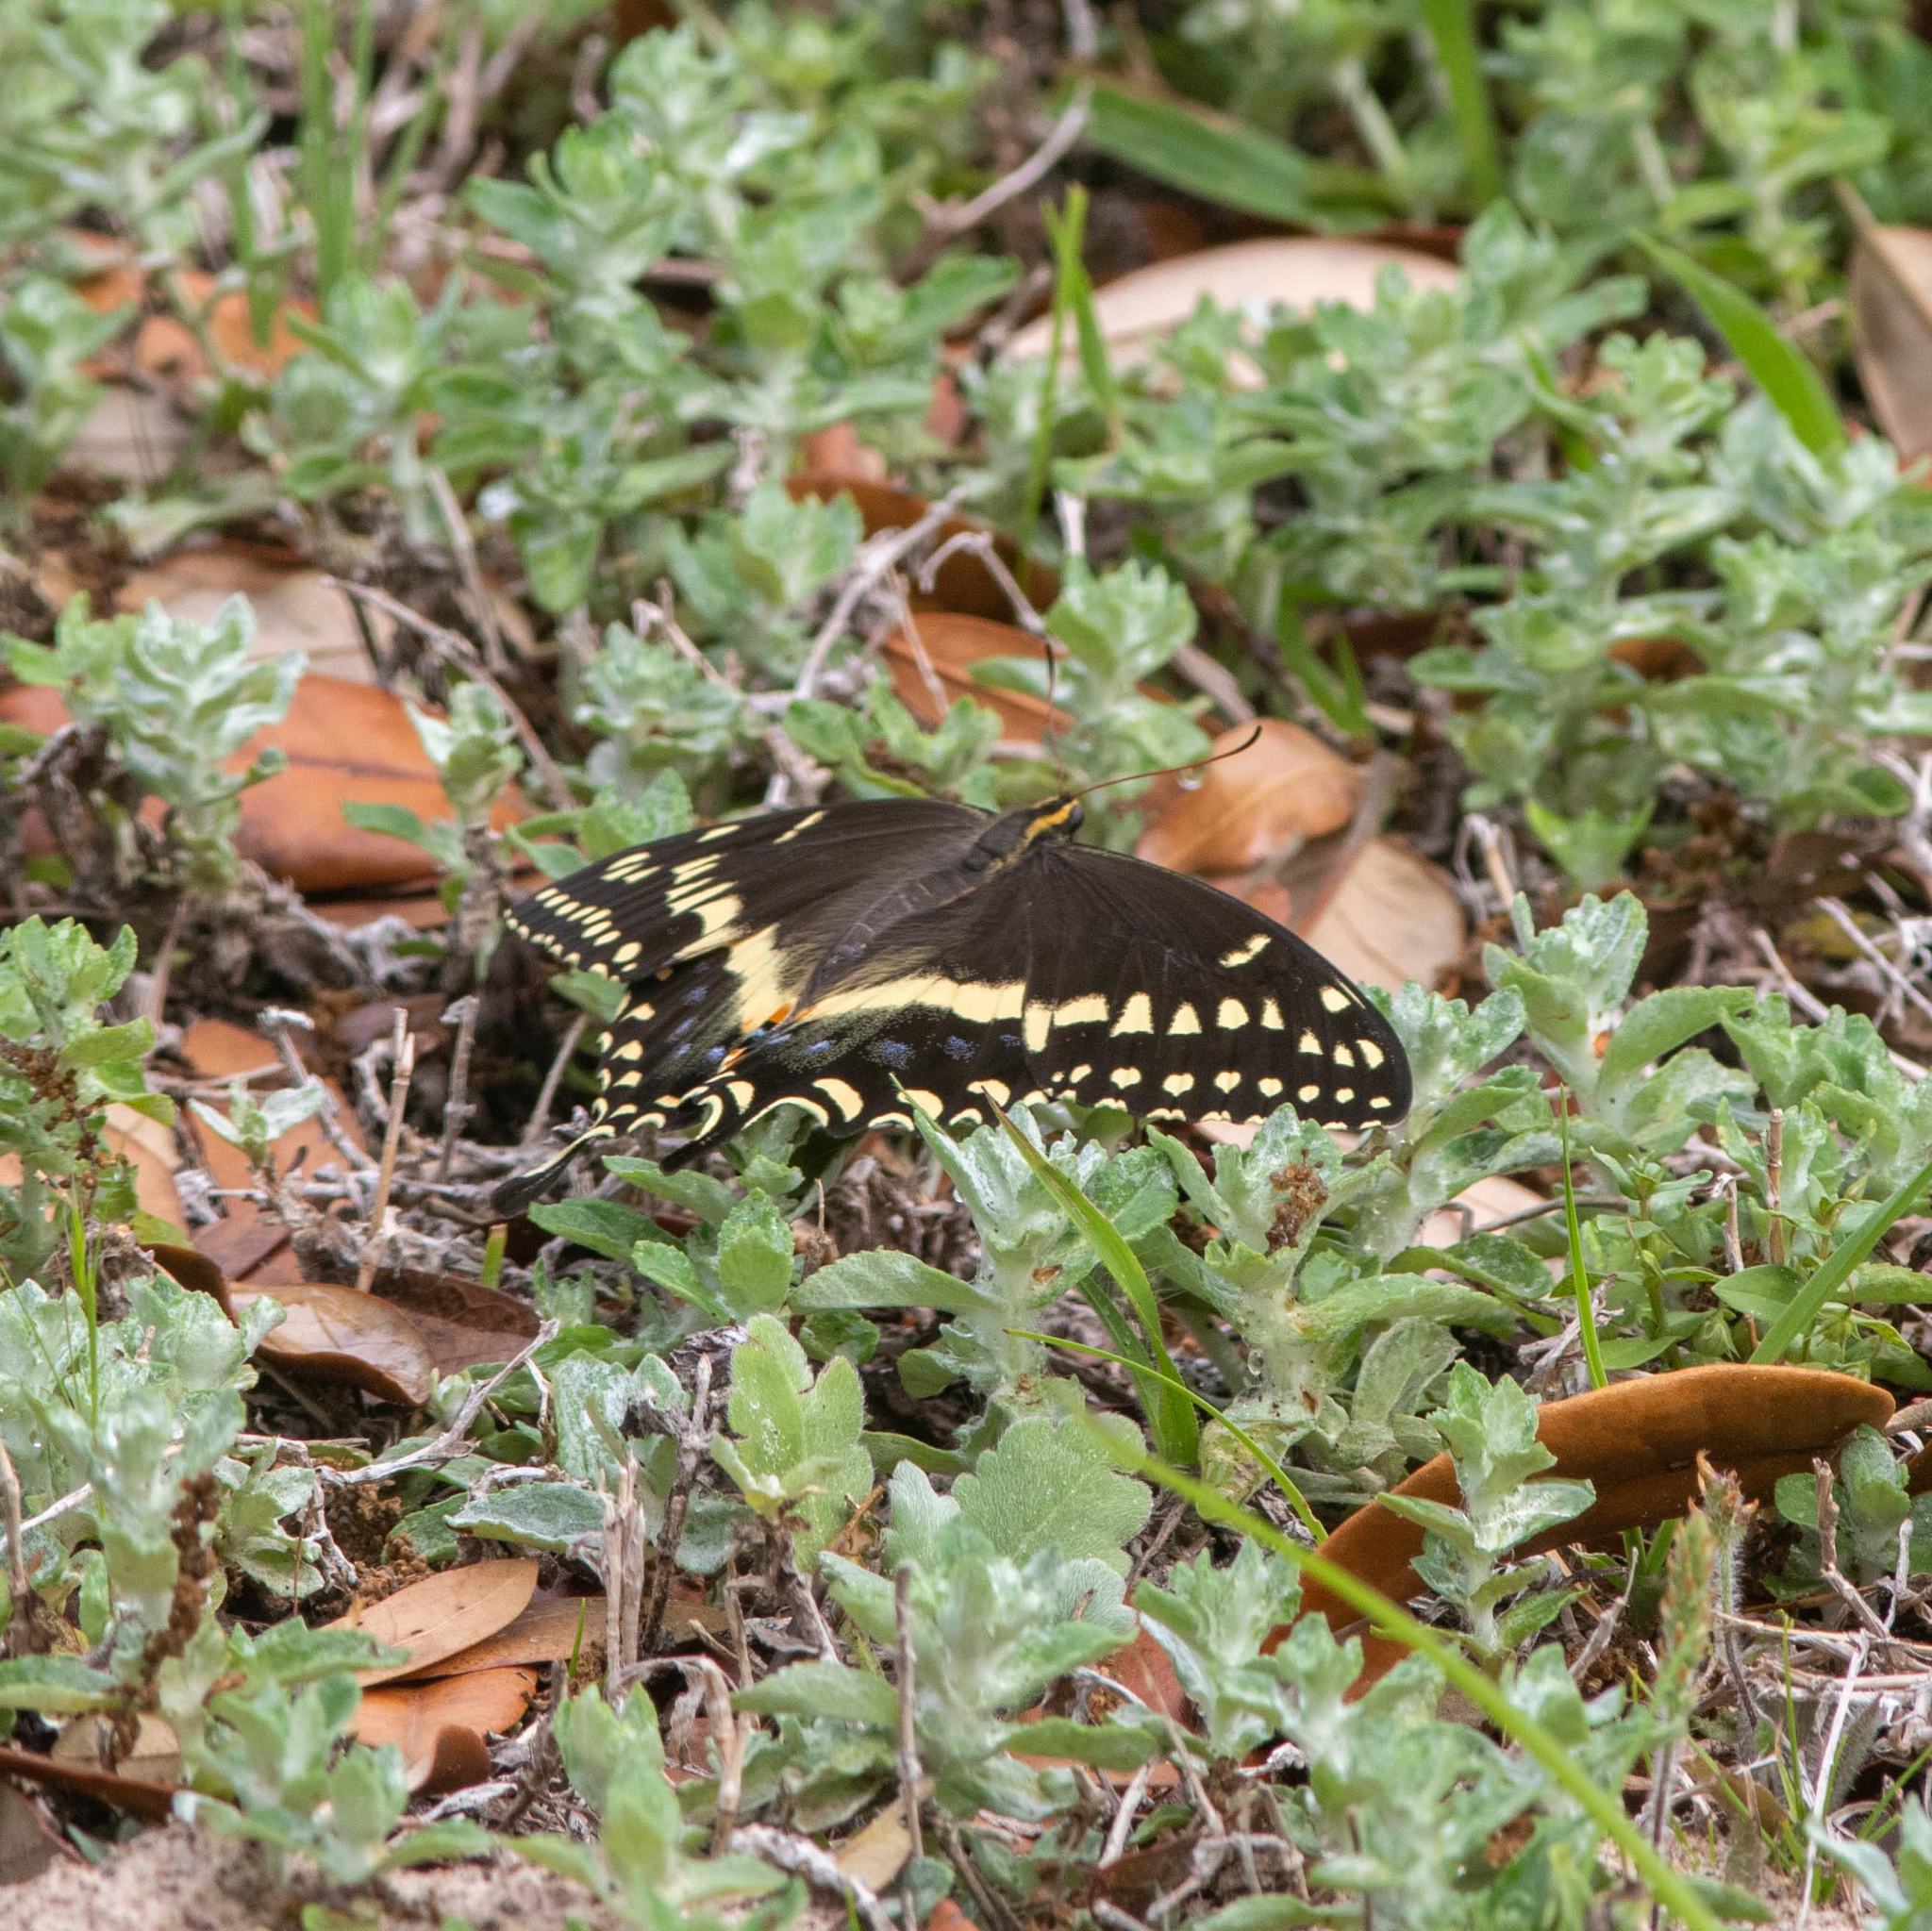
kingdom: Animalia
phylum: Arthropoda
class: Insecta
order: Lepidoptera
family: Papilionidae
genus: Papilio
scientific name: Papilio palamedes
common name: Palamedes swallowtail
